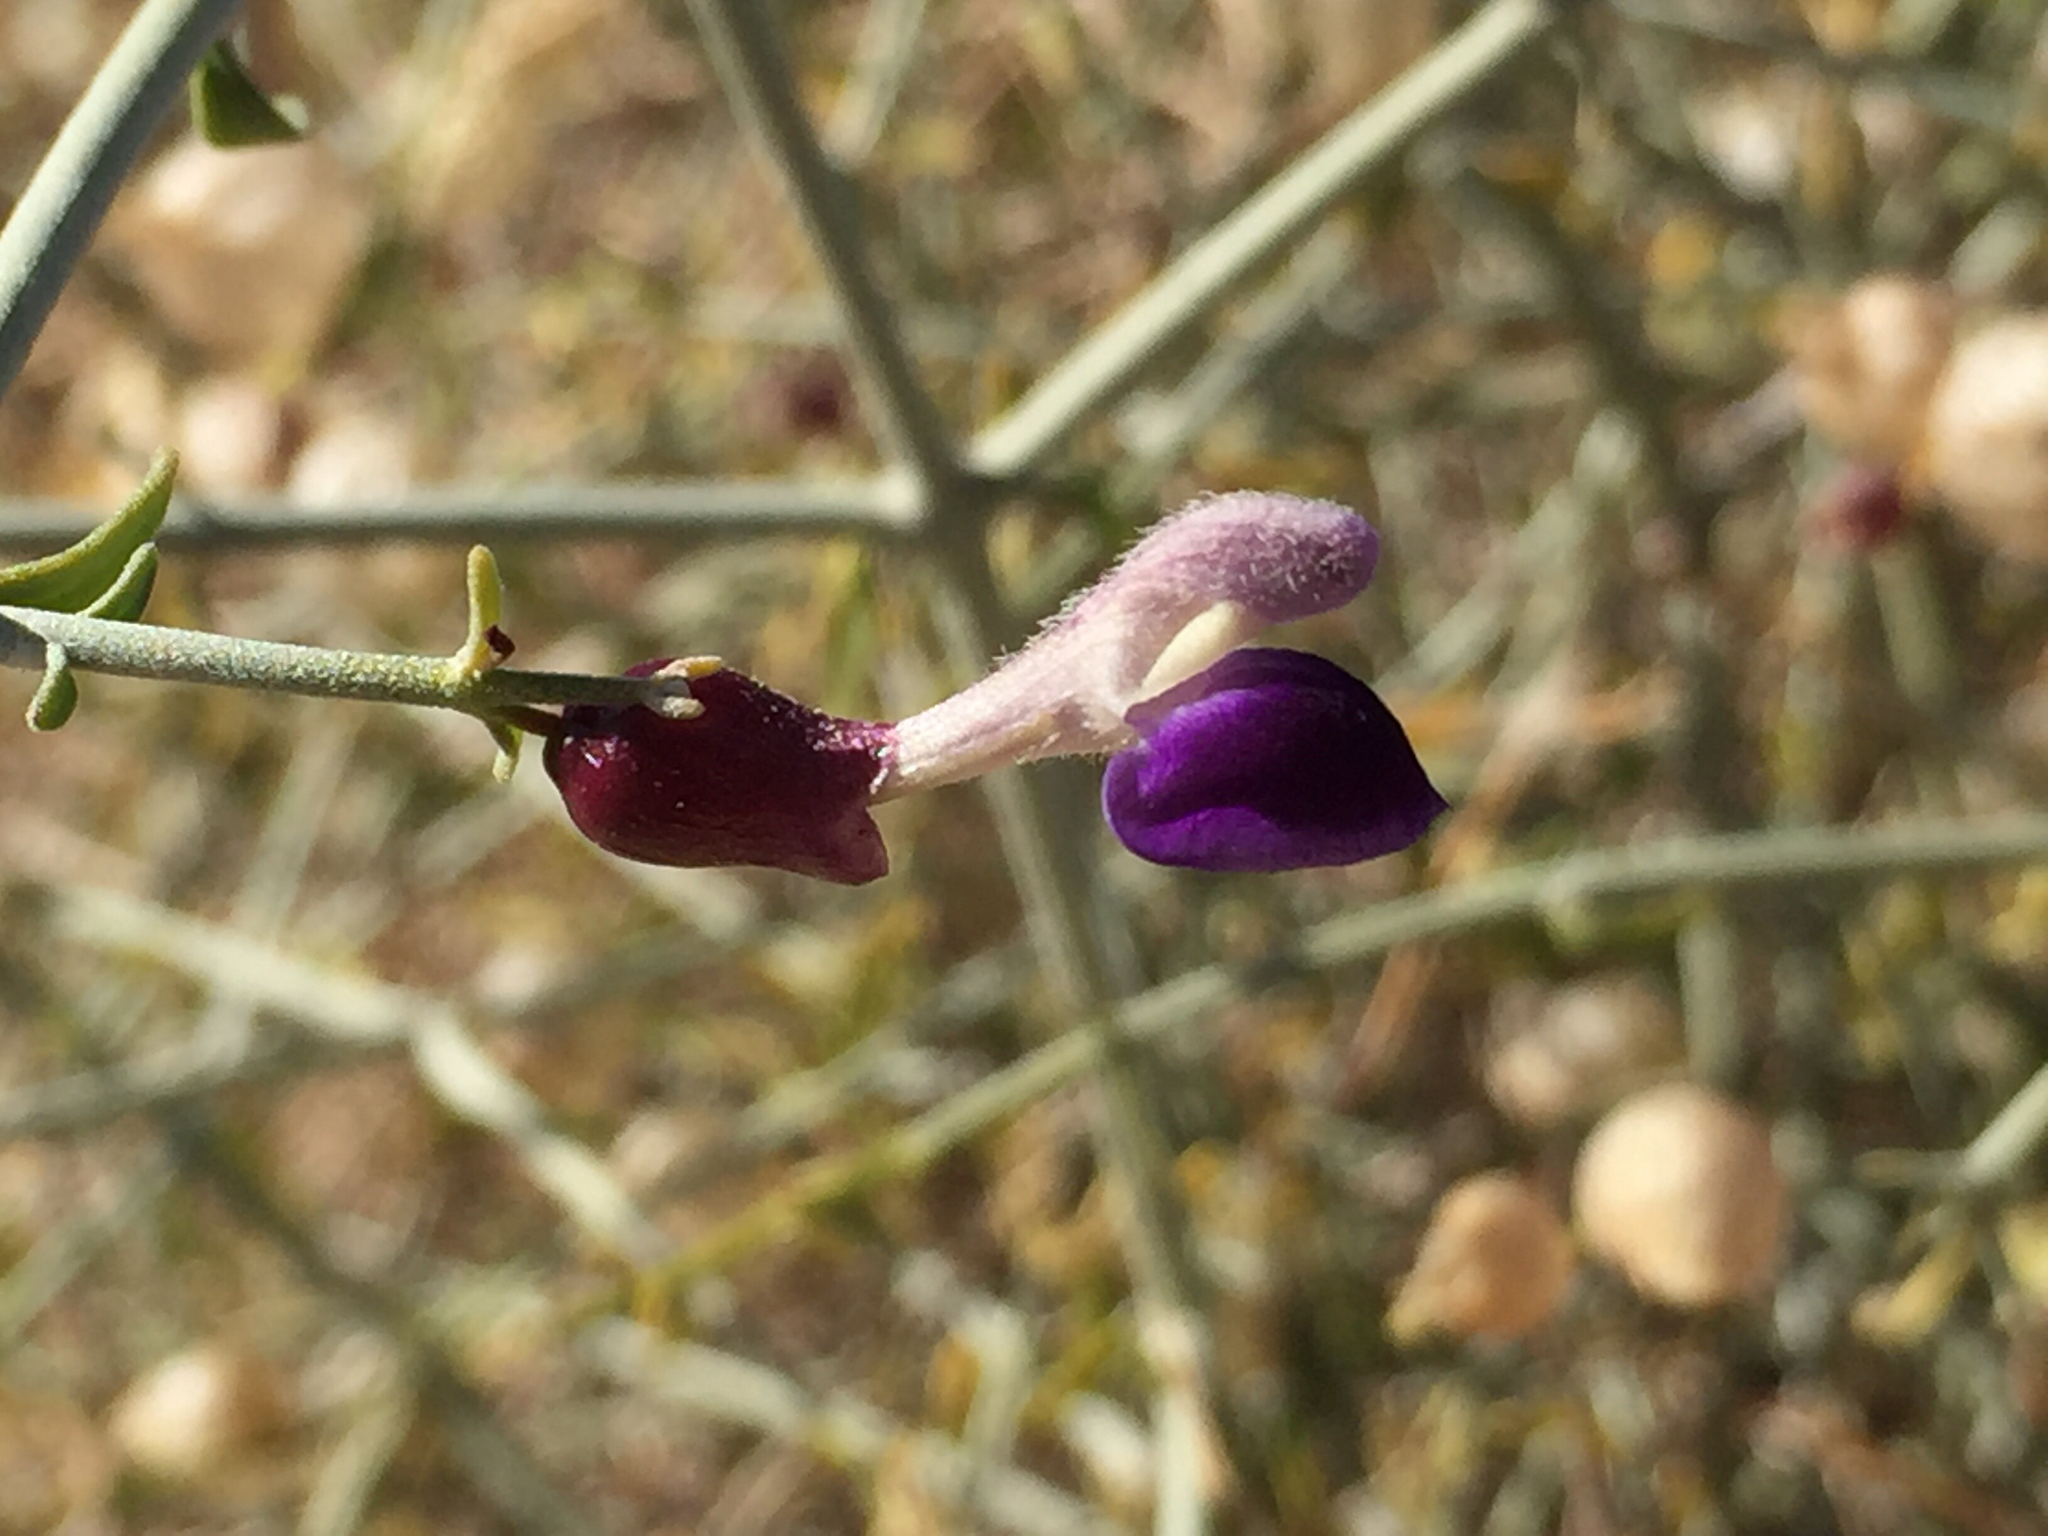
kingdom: Plantae
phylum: Tracheophyta
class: Magnoliopsida
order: Lamiales
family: Lamiaceae
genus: Scutellaria
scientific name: Scutellaria mexicana
